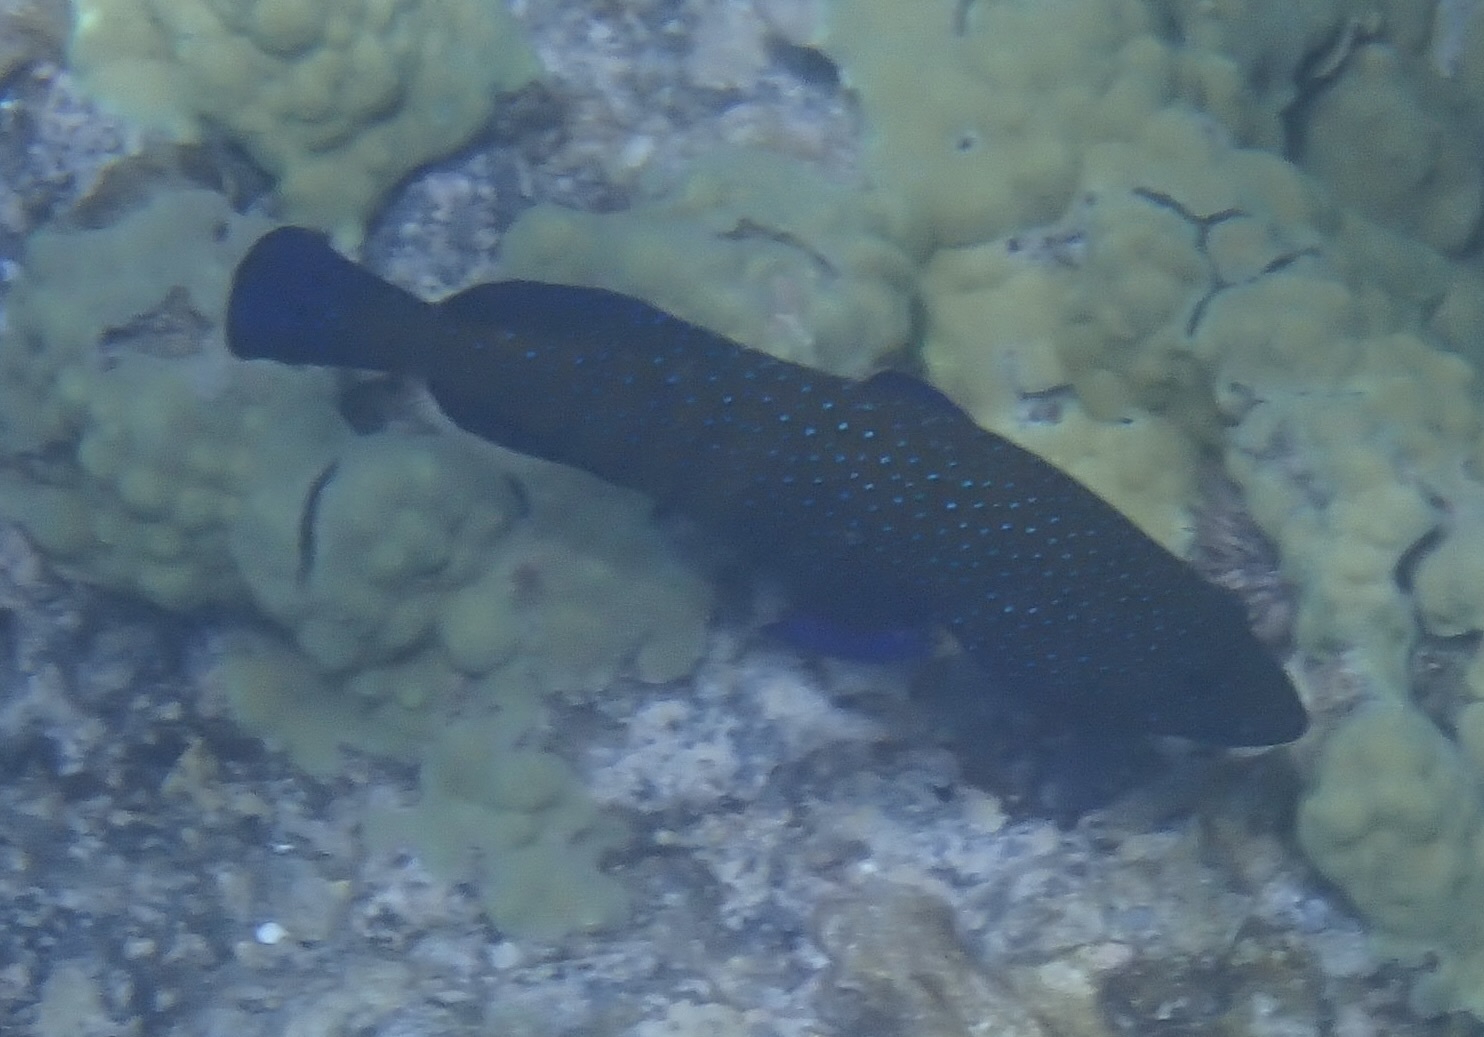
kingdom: Animalia
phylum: Chordata
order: Perciformes
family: Serranidae
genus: Cephalopholis
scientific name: Cephalopholis argus
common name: Peacock grouper
